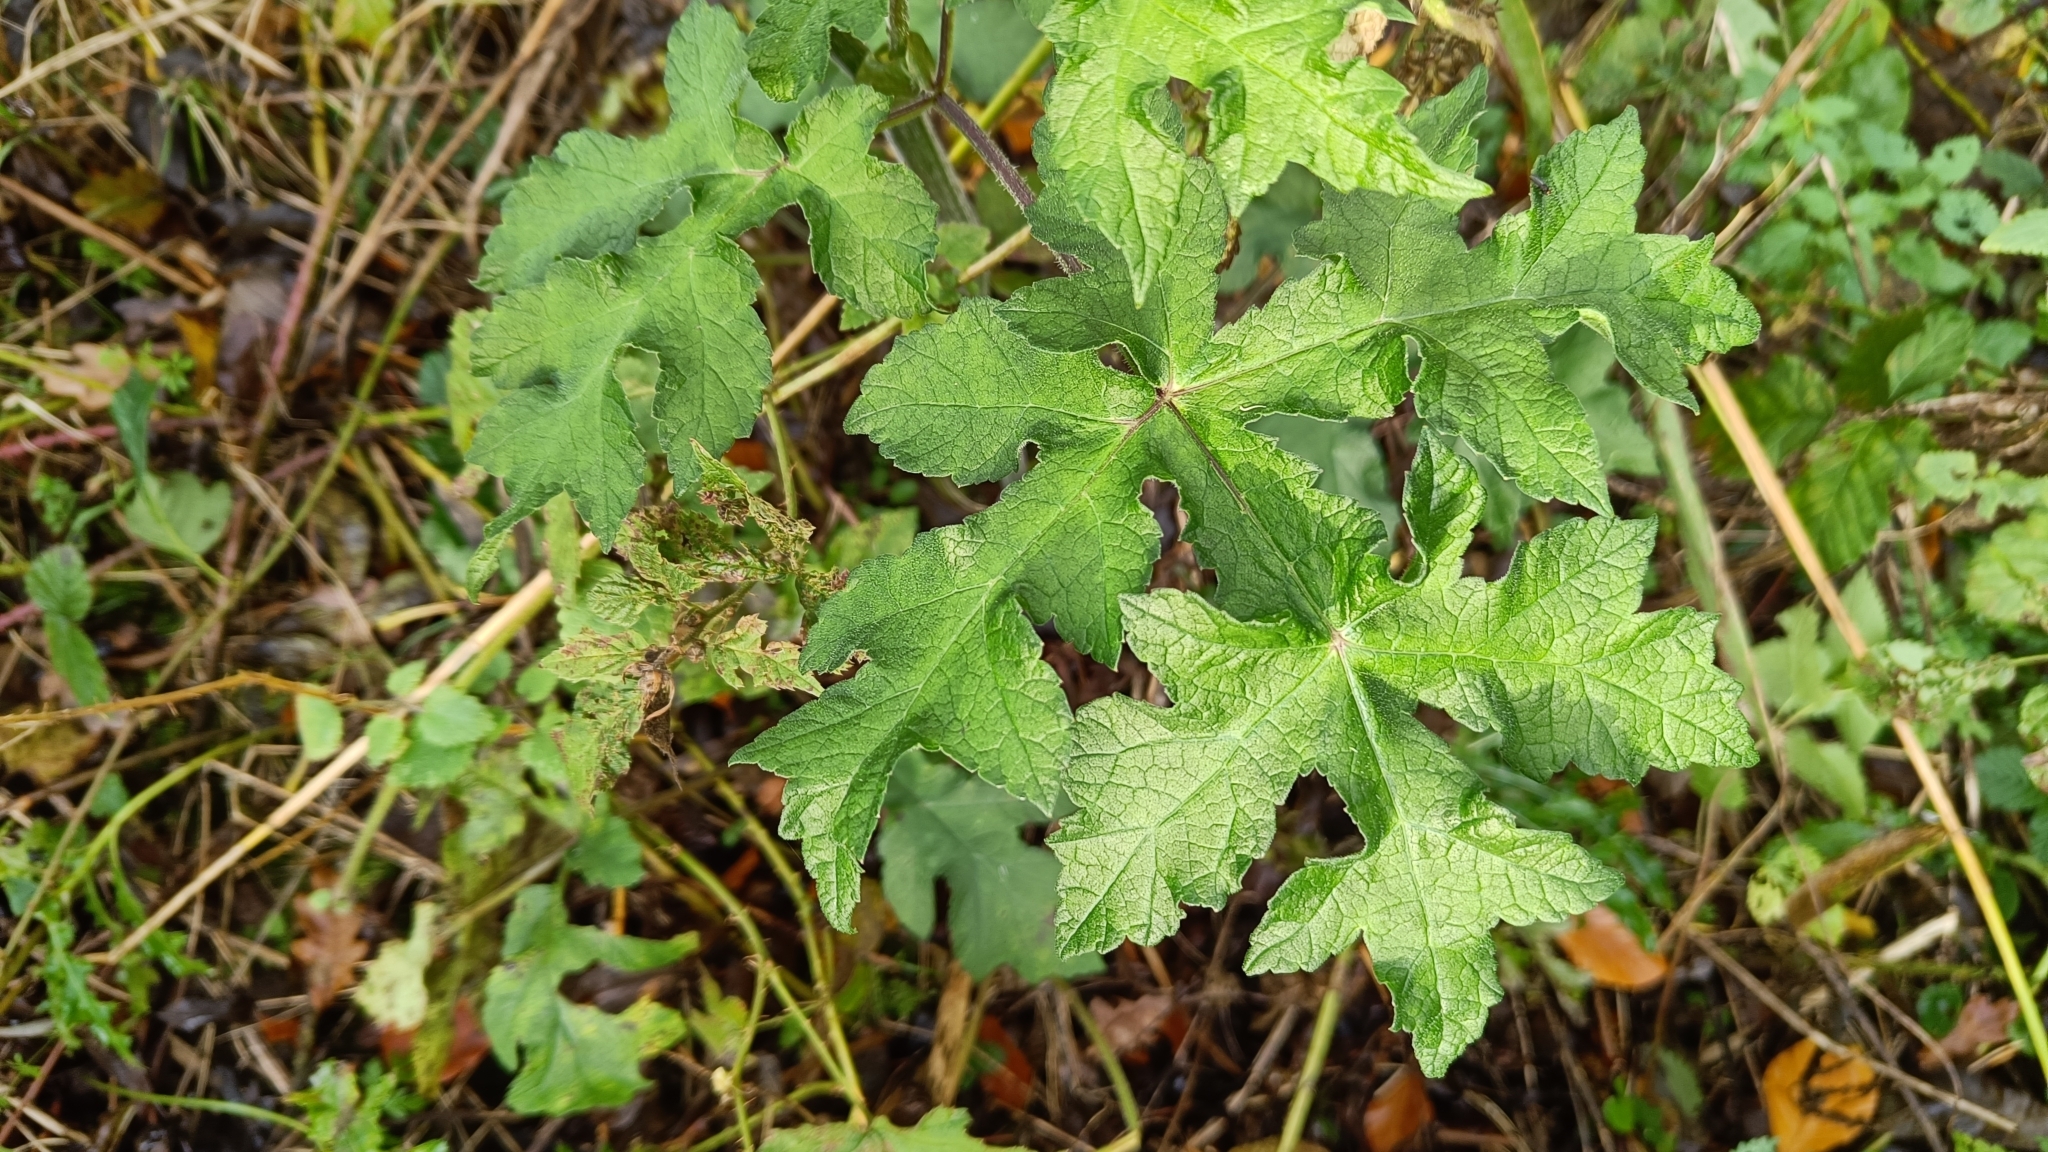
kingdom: Plantae
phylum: Tracheophyta
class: Magnoliopsida
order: Apiales
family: Apiaceae
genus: Heracleum
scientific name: Heracleum sphondylium
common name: Hogweed
